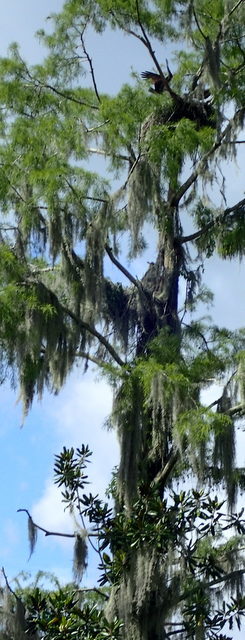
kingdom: Animalia
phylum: Chordata
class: Aves
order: Accipitriformes
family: Pandionidae
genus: Pandion
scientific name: Pandion haliaetus
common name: Osprey
